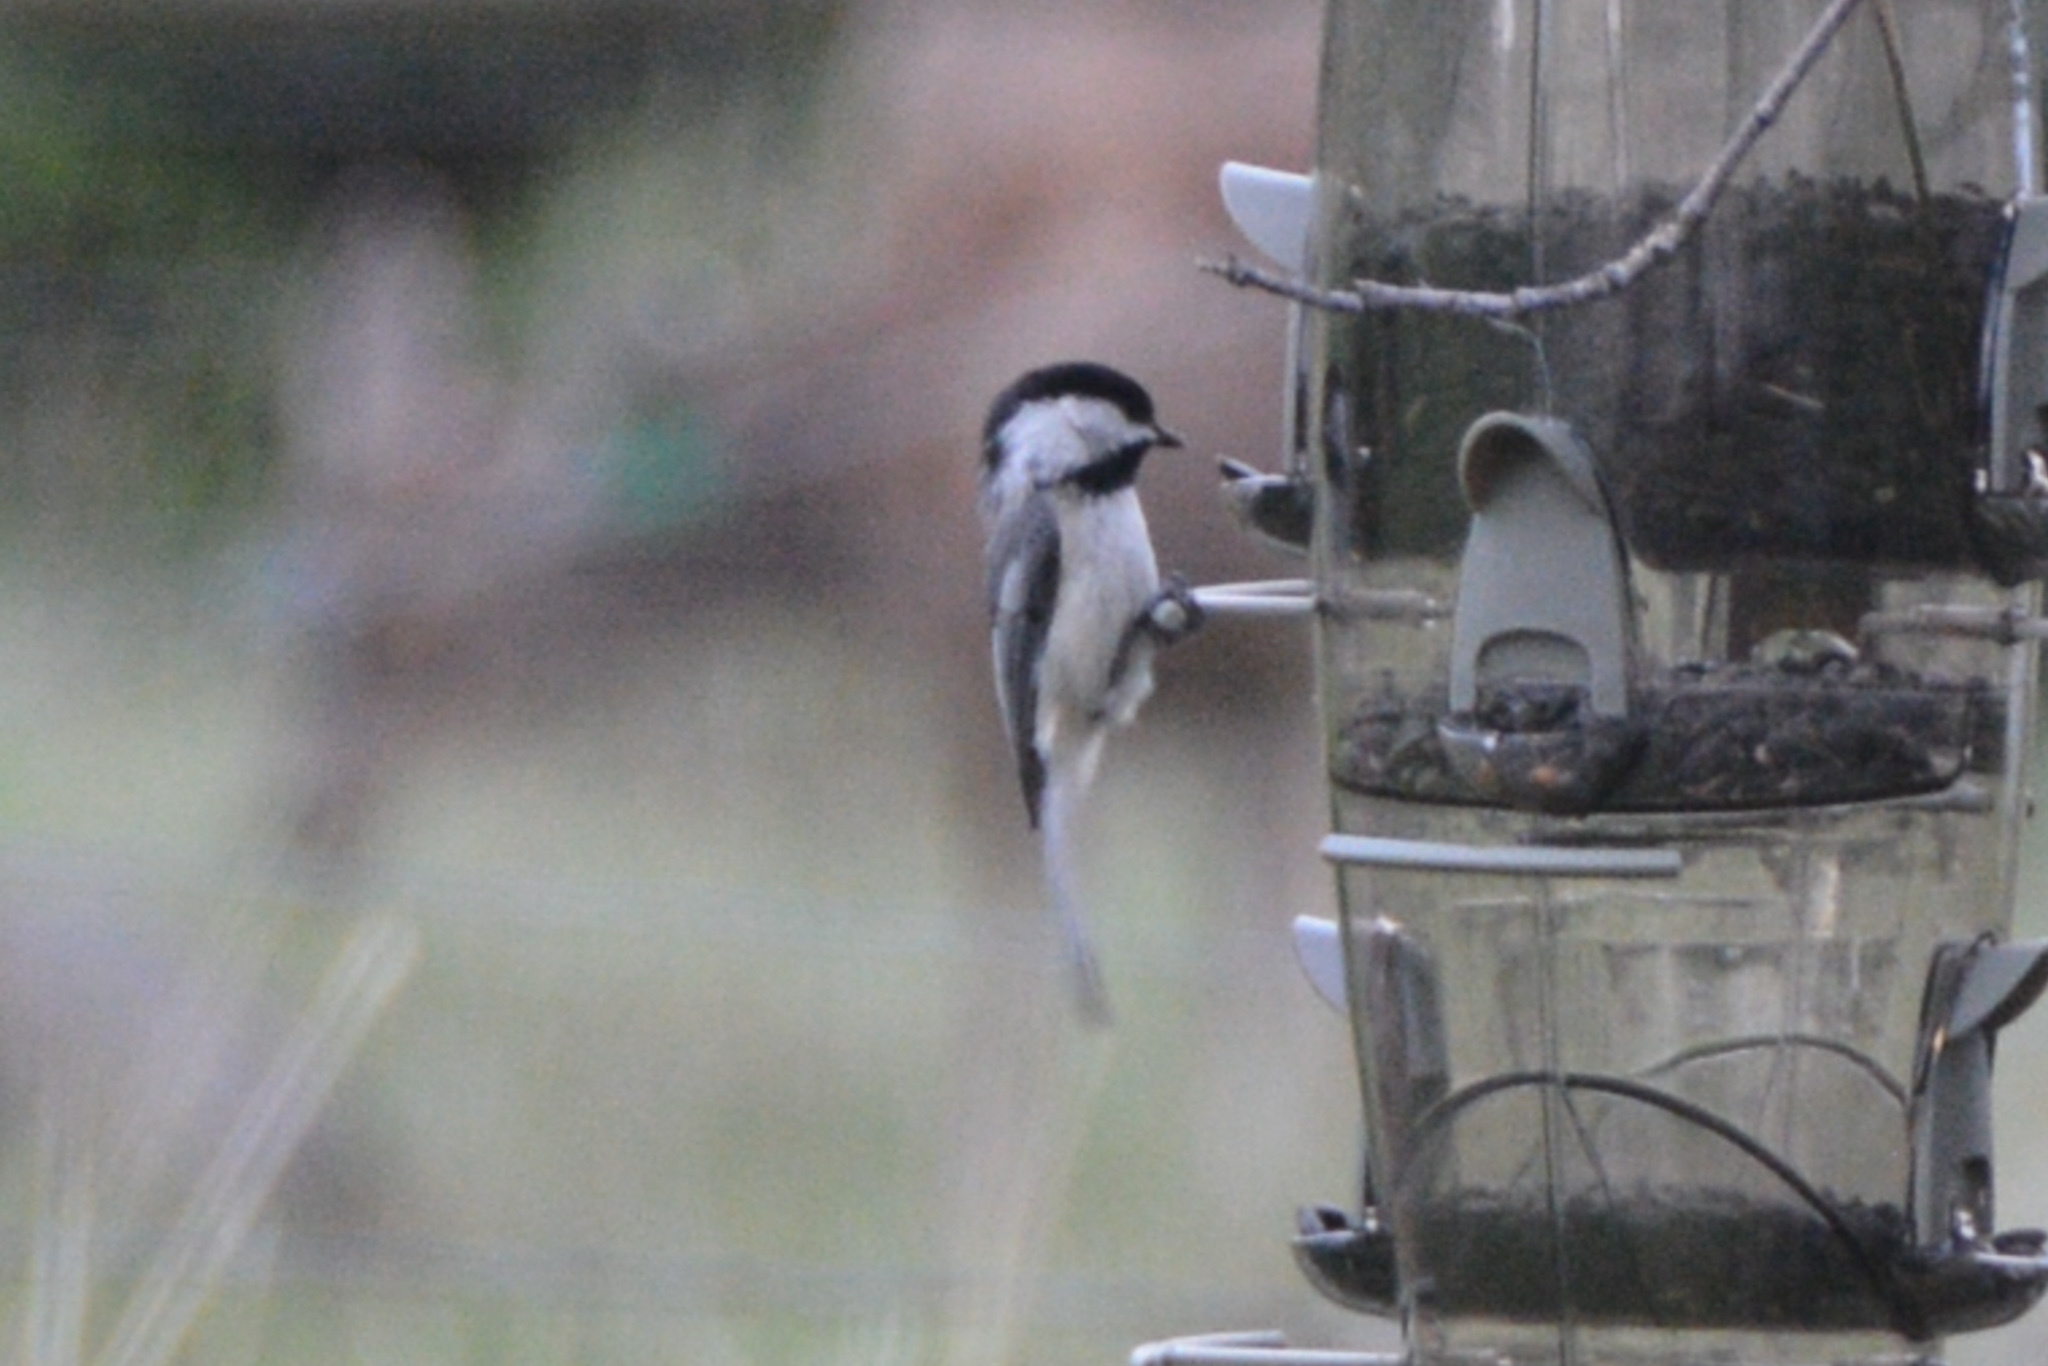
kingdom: Animalia
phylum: Chordata
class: Aves
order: Passeriformes
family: Paridae
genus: Poecile
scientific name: Poecile atricapillus
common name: Black-capped chickadee
